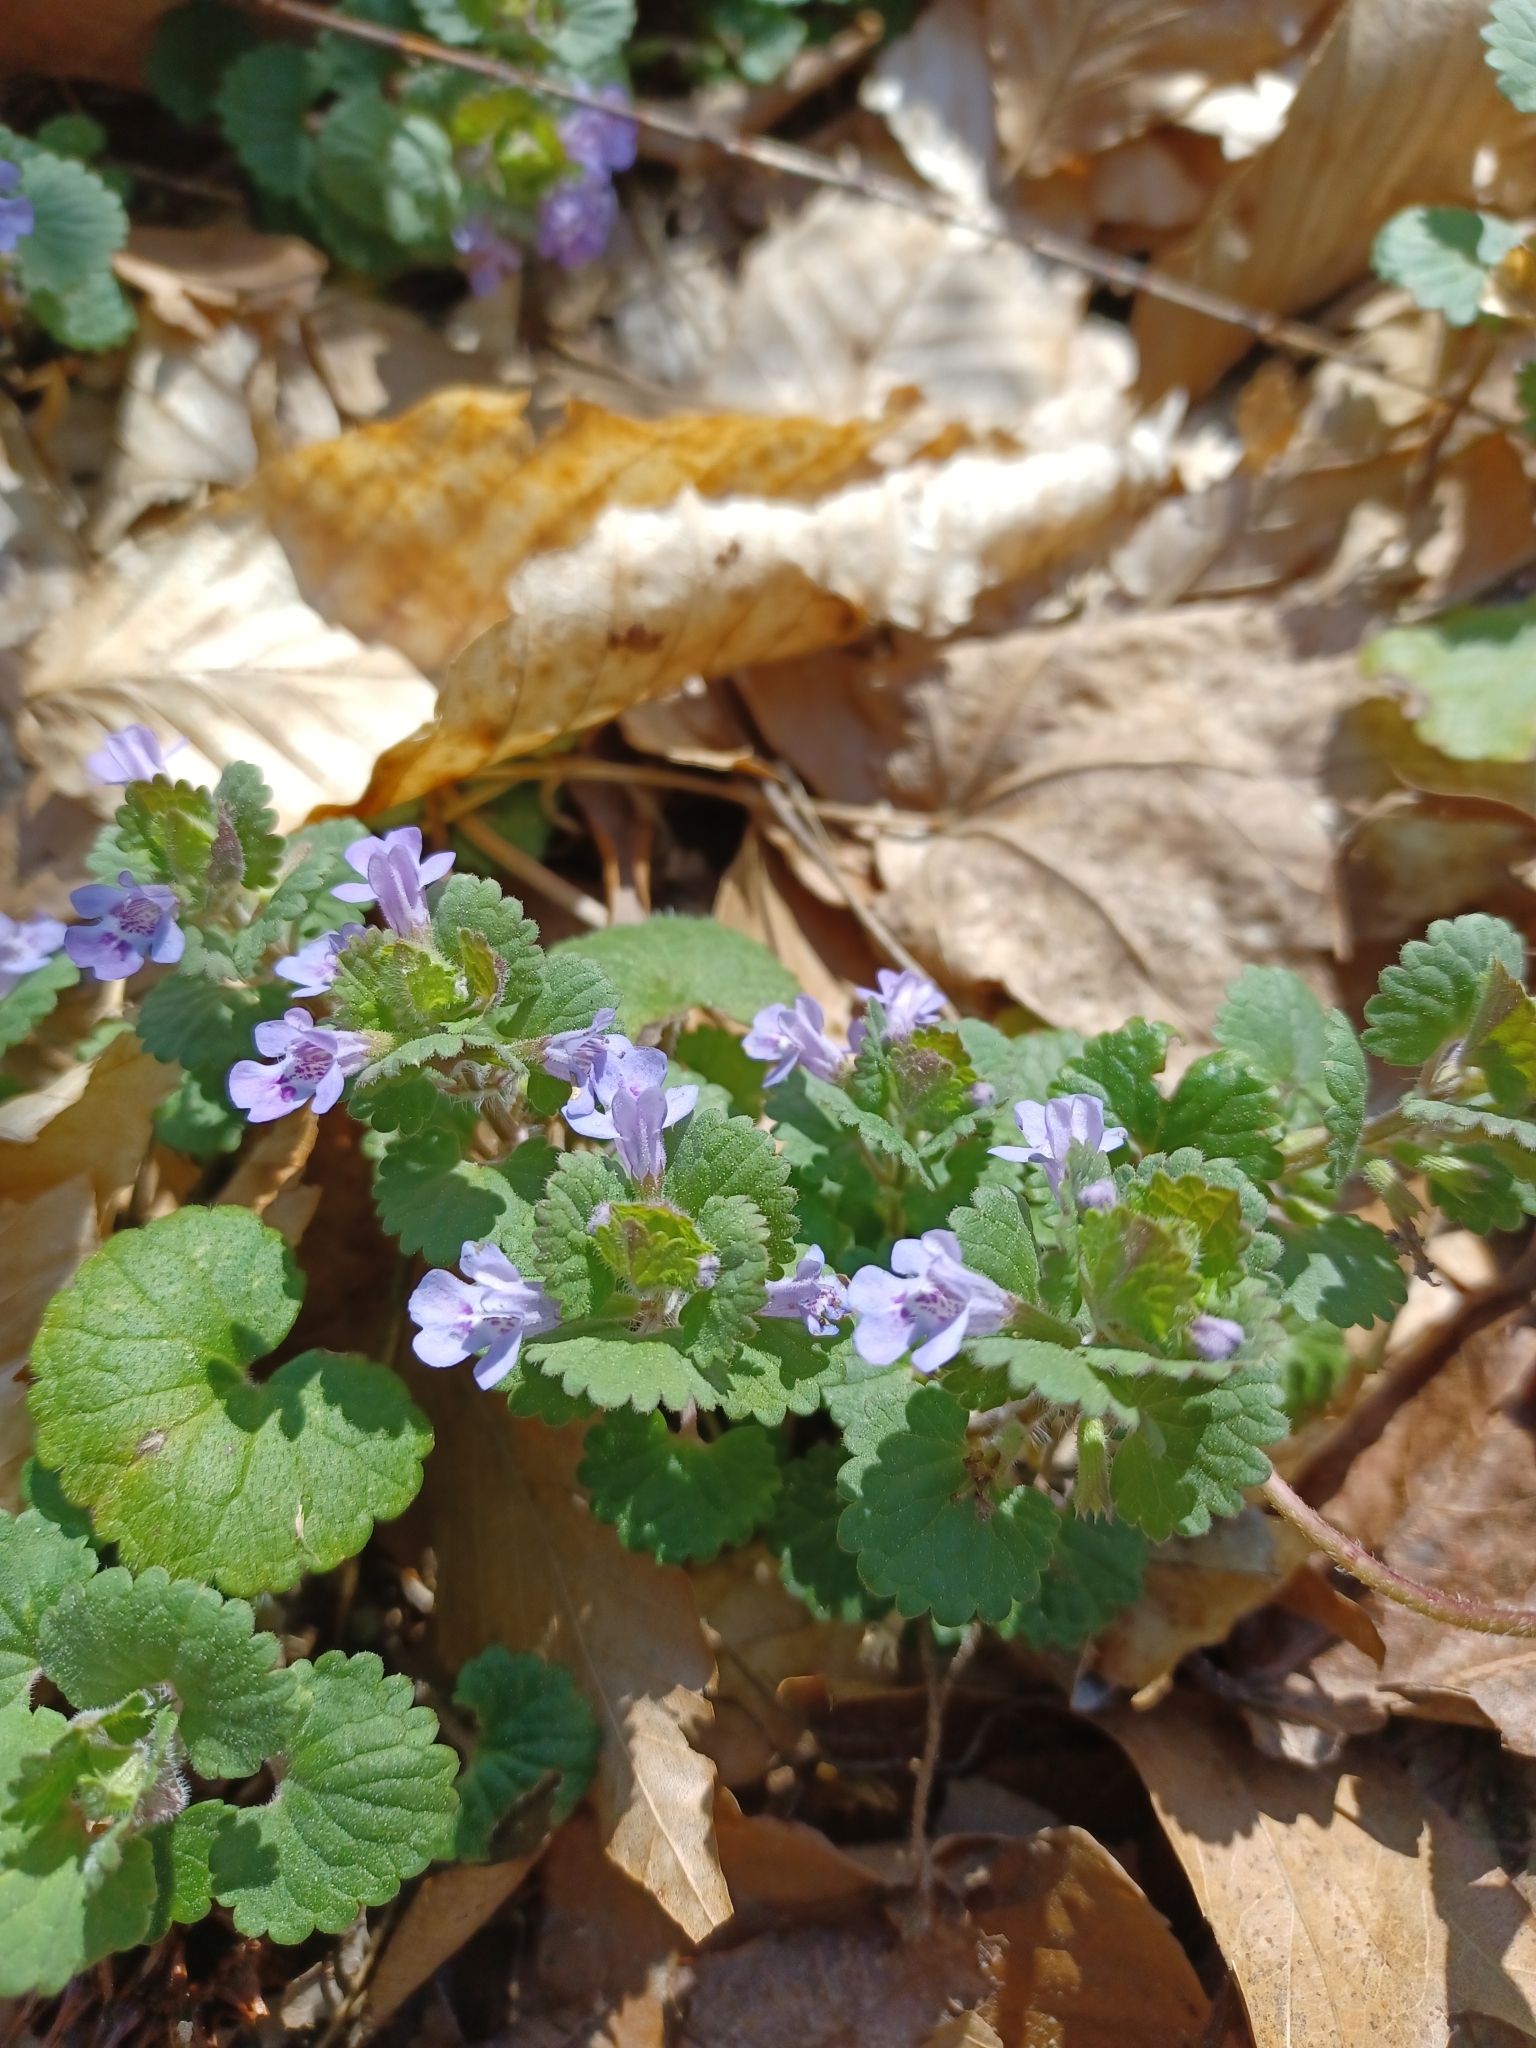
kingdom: Plantae
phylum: Tracheophyta
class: Magnoliopsida
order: Lamiales
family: Lamiaceae
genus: Glechoma
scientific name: Glechoma hederacea
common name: Ground ivy
